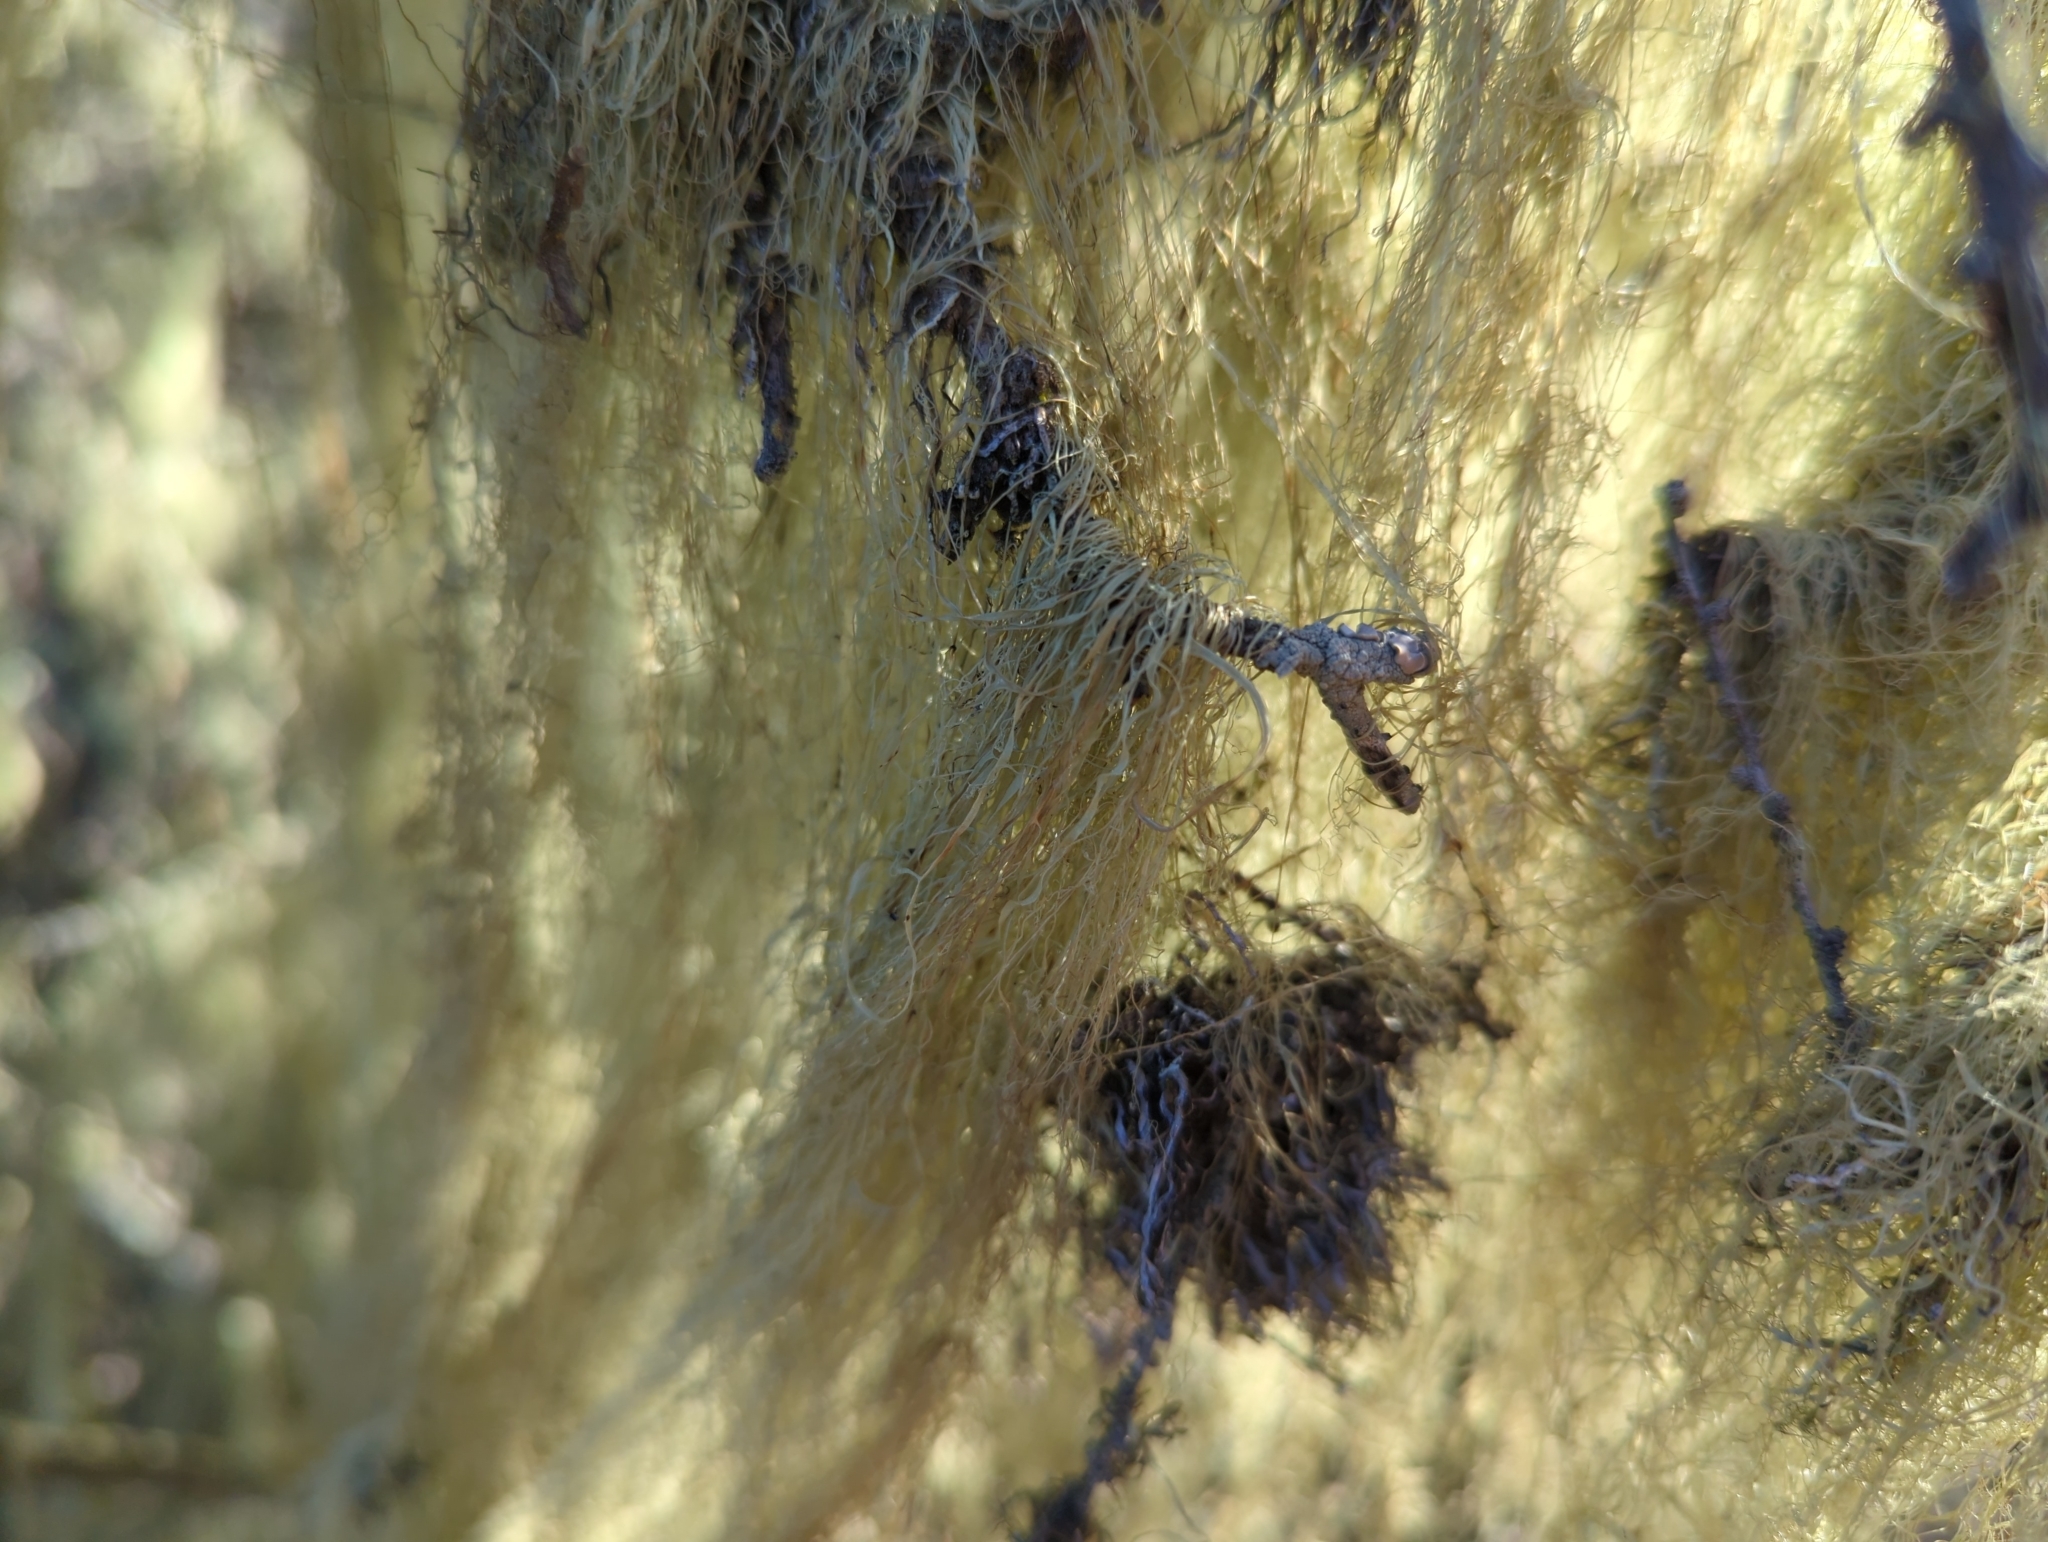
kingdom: Fungi
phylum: Ascomycota
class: Lecanoromycetes
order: Lecanorales
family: Ramalinaceae
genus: Ramalina
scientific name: Ramalina menziesii
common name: Lace lichen
